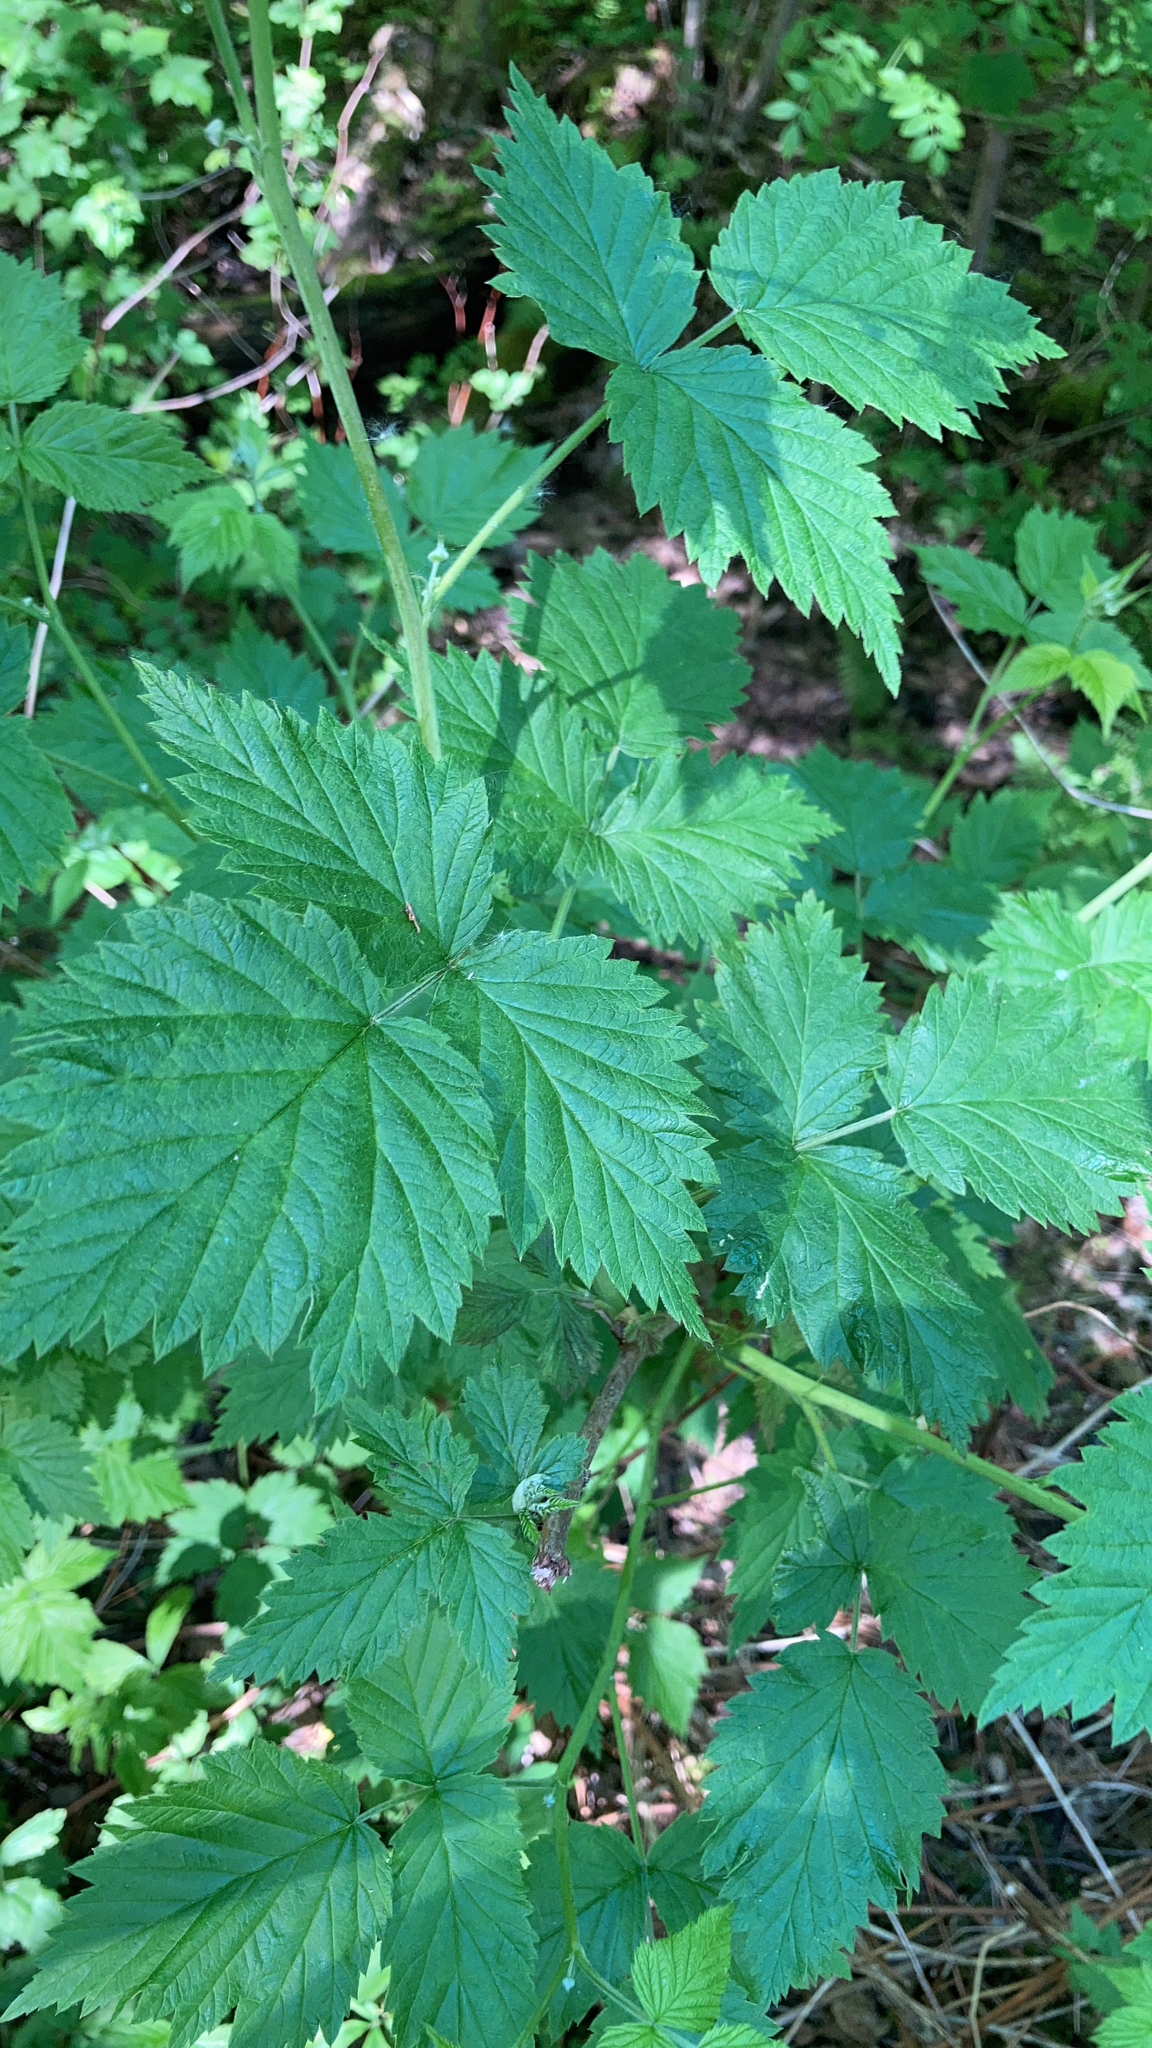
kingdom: Plantae
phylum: Tracheophyta
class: Magnoliopsida
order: Rosales
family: Rosaceae
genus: Rubus
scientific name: Rubus spectabilis
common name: Salmonberry
